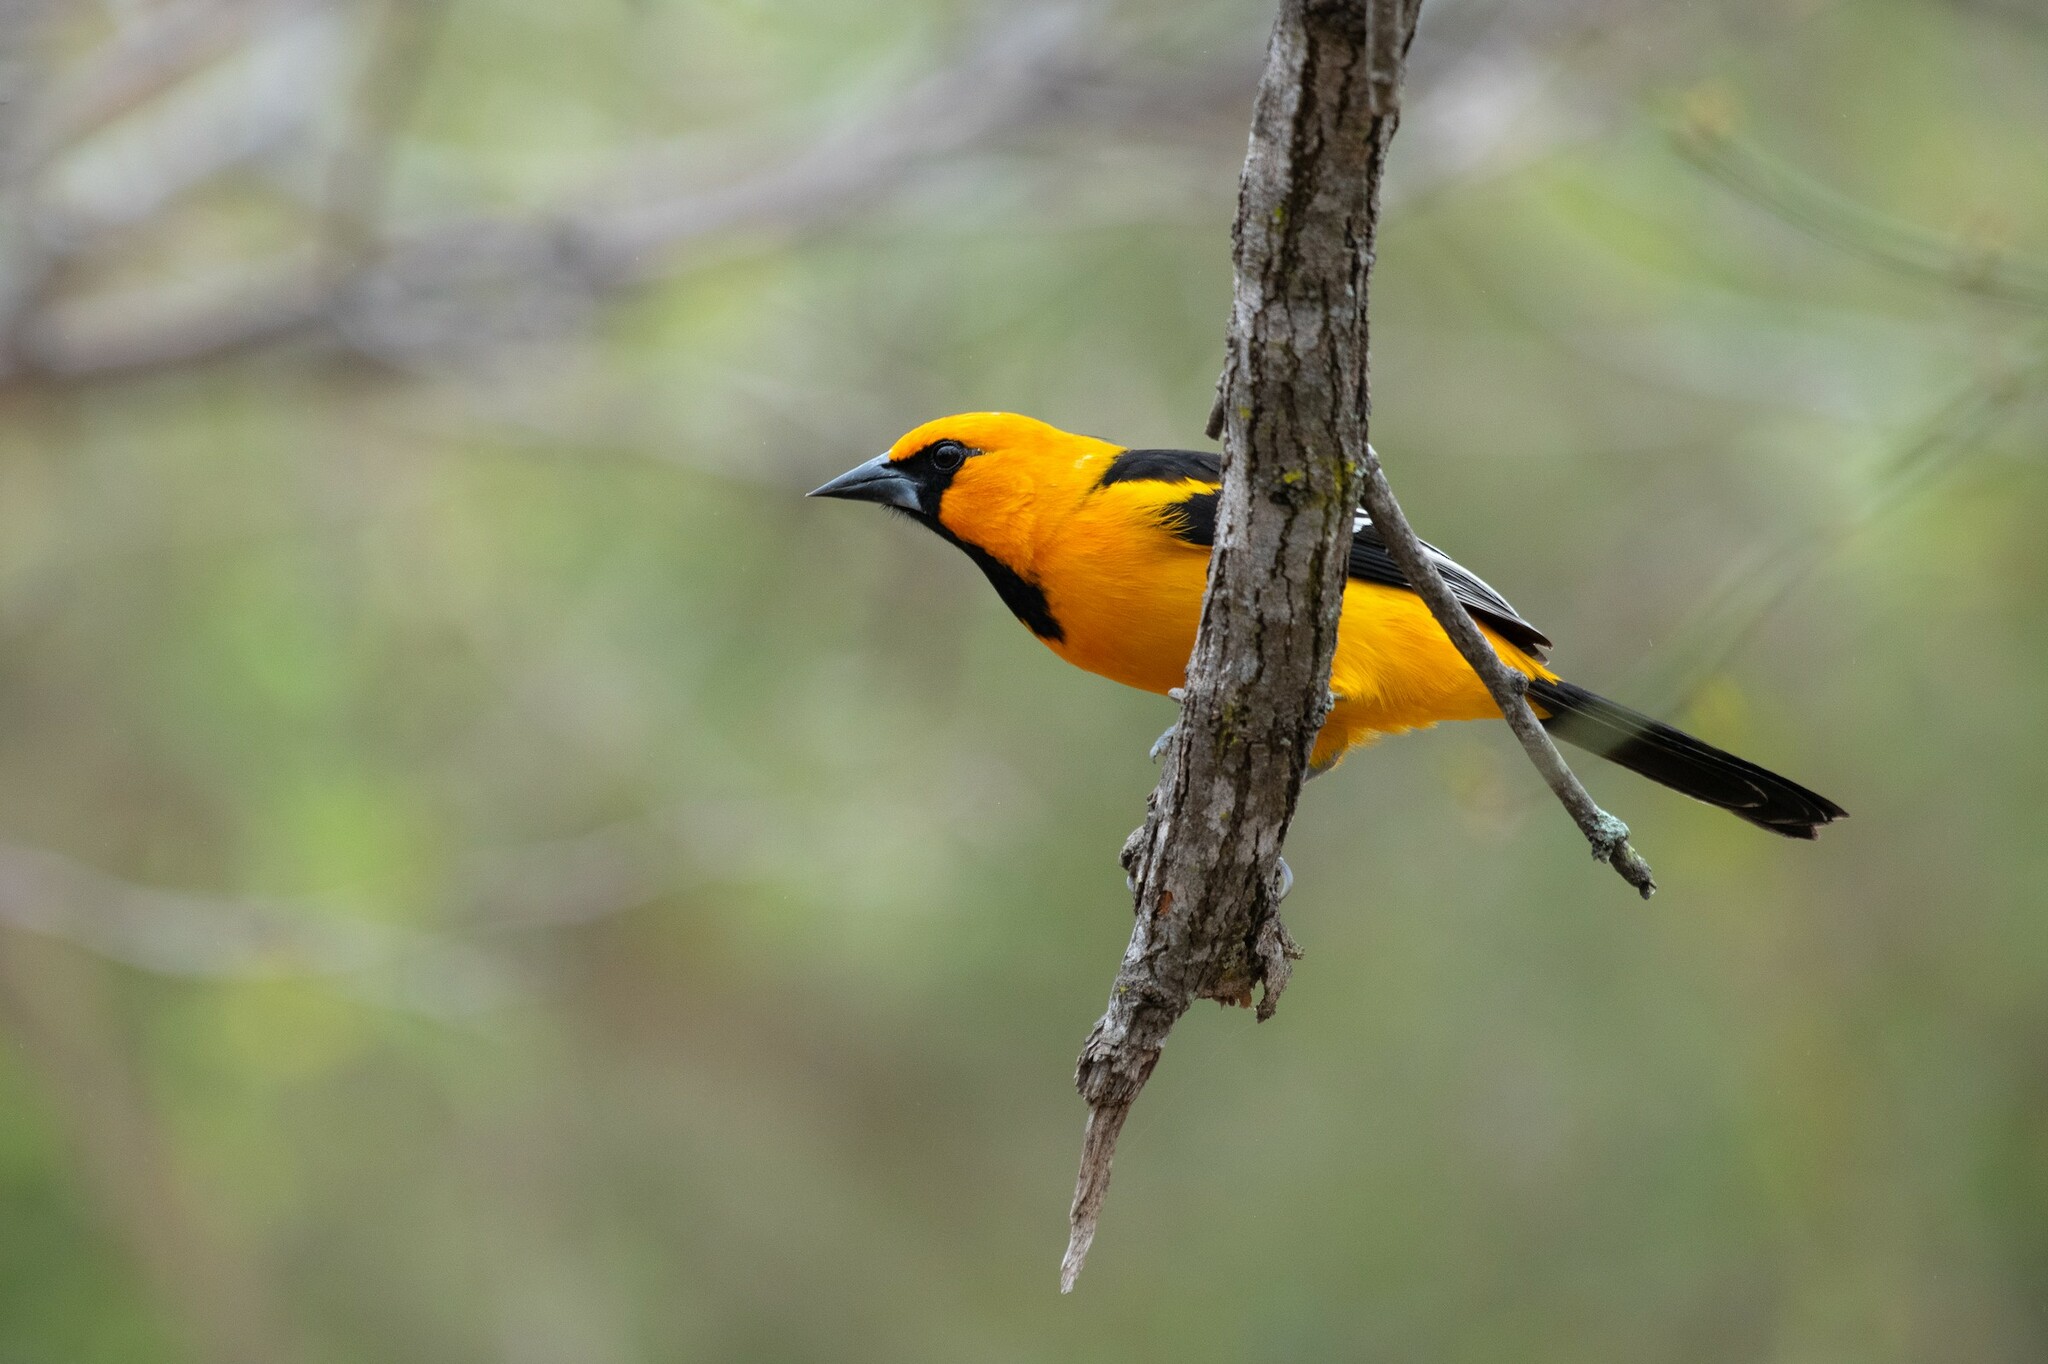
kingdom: Animalia
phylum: Chordata
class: Aves
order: Passeriformes
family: Icteridae
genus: Icterus
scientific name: Icterus gularis
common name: Altamira oriole
